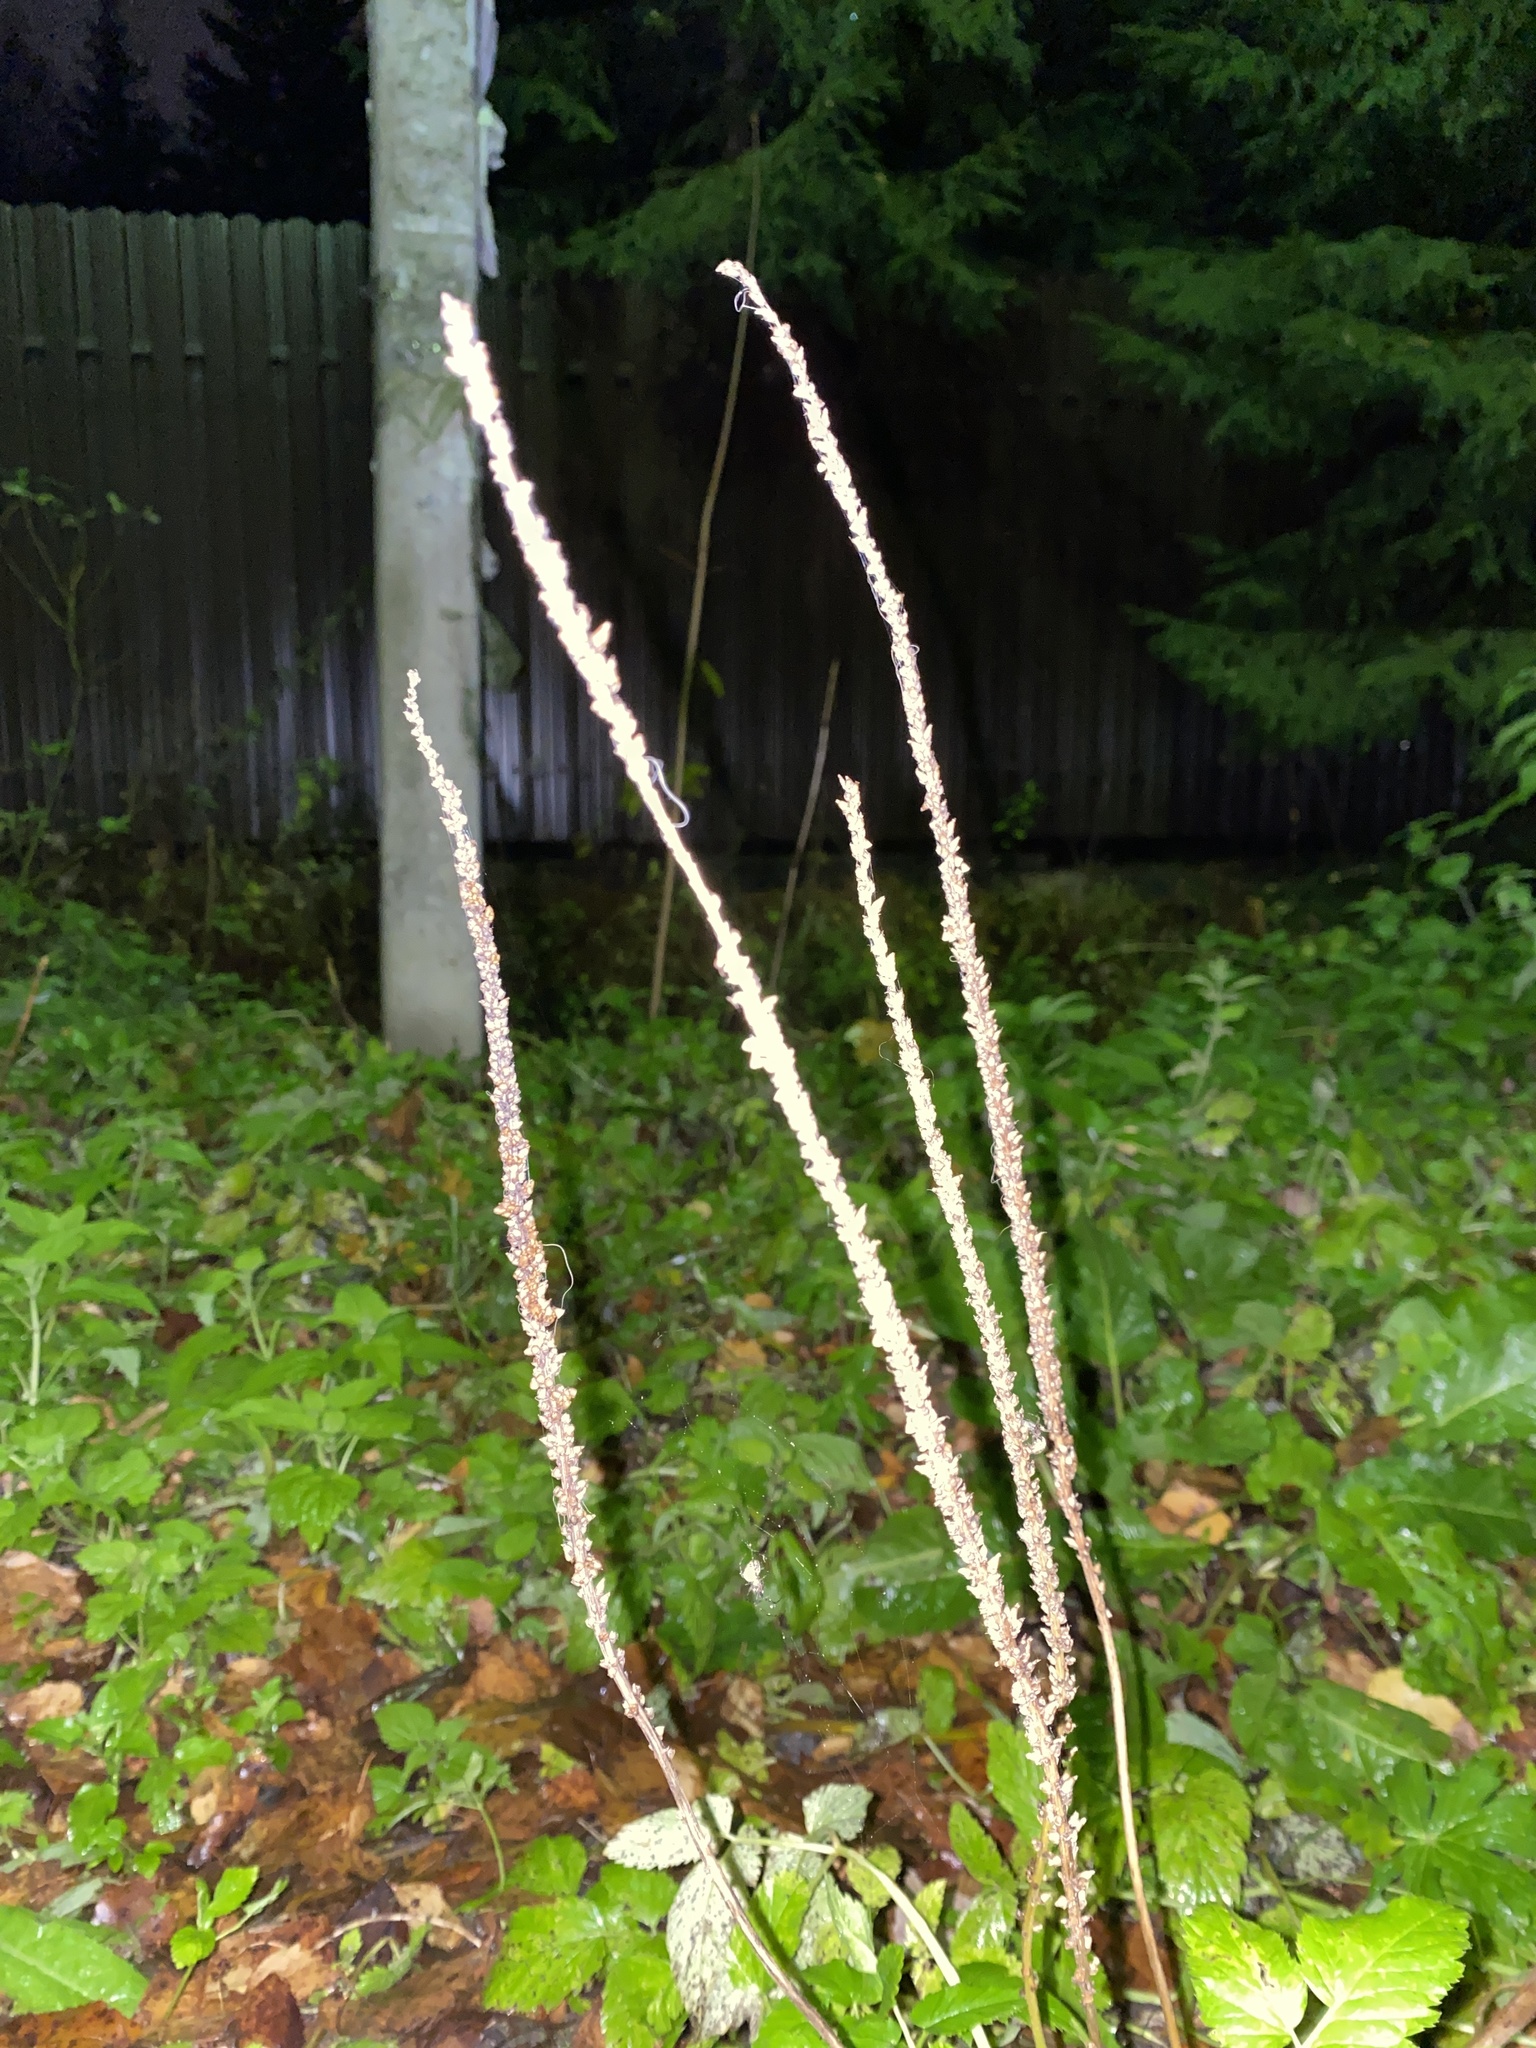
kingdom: Plantae
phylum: Tracheophyta
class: Magnoliopsida
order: Lamiales
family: Plantaginaceae
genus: Plantago
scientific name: Plantago major
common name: Common plantain
